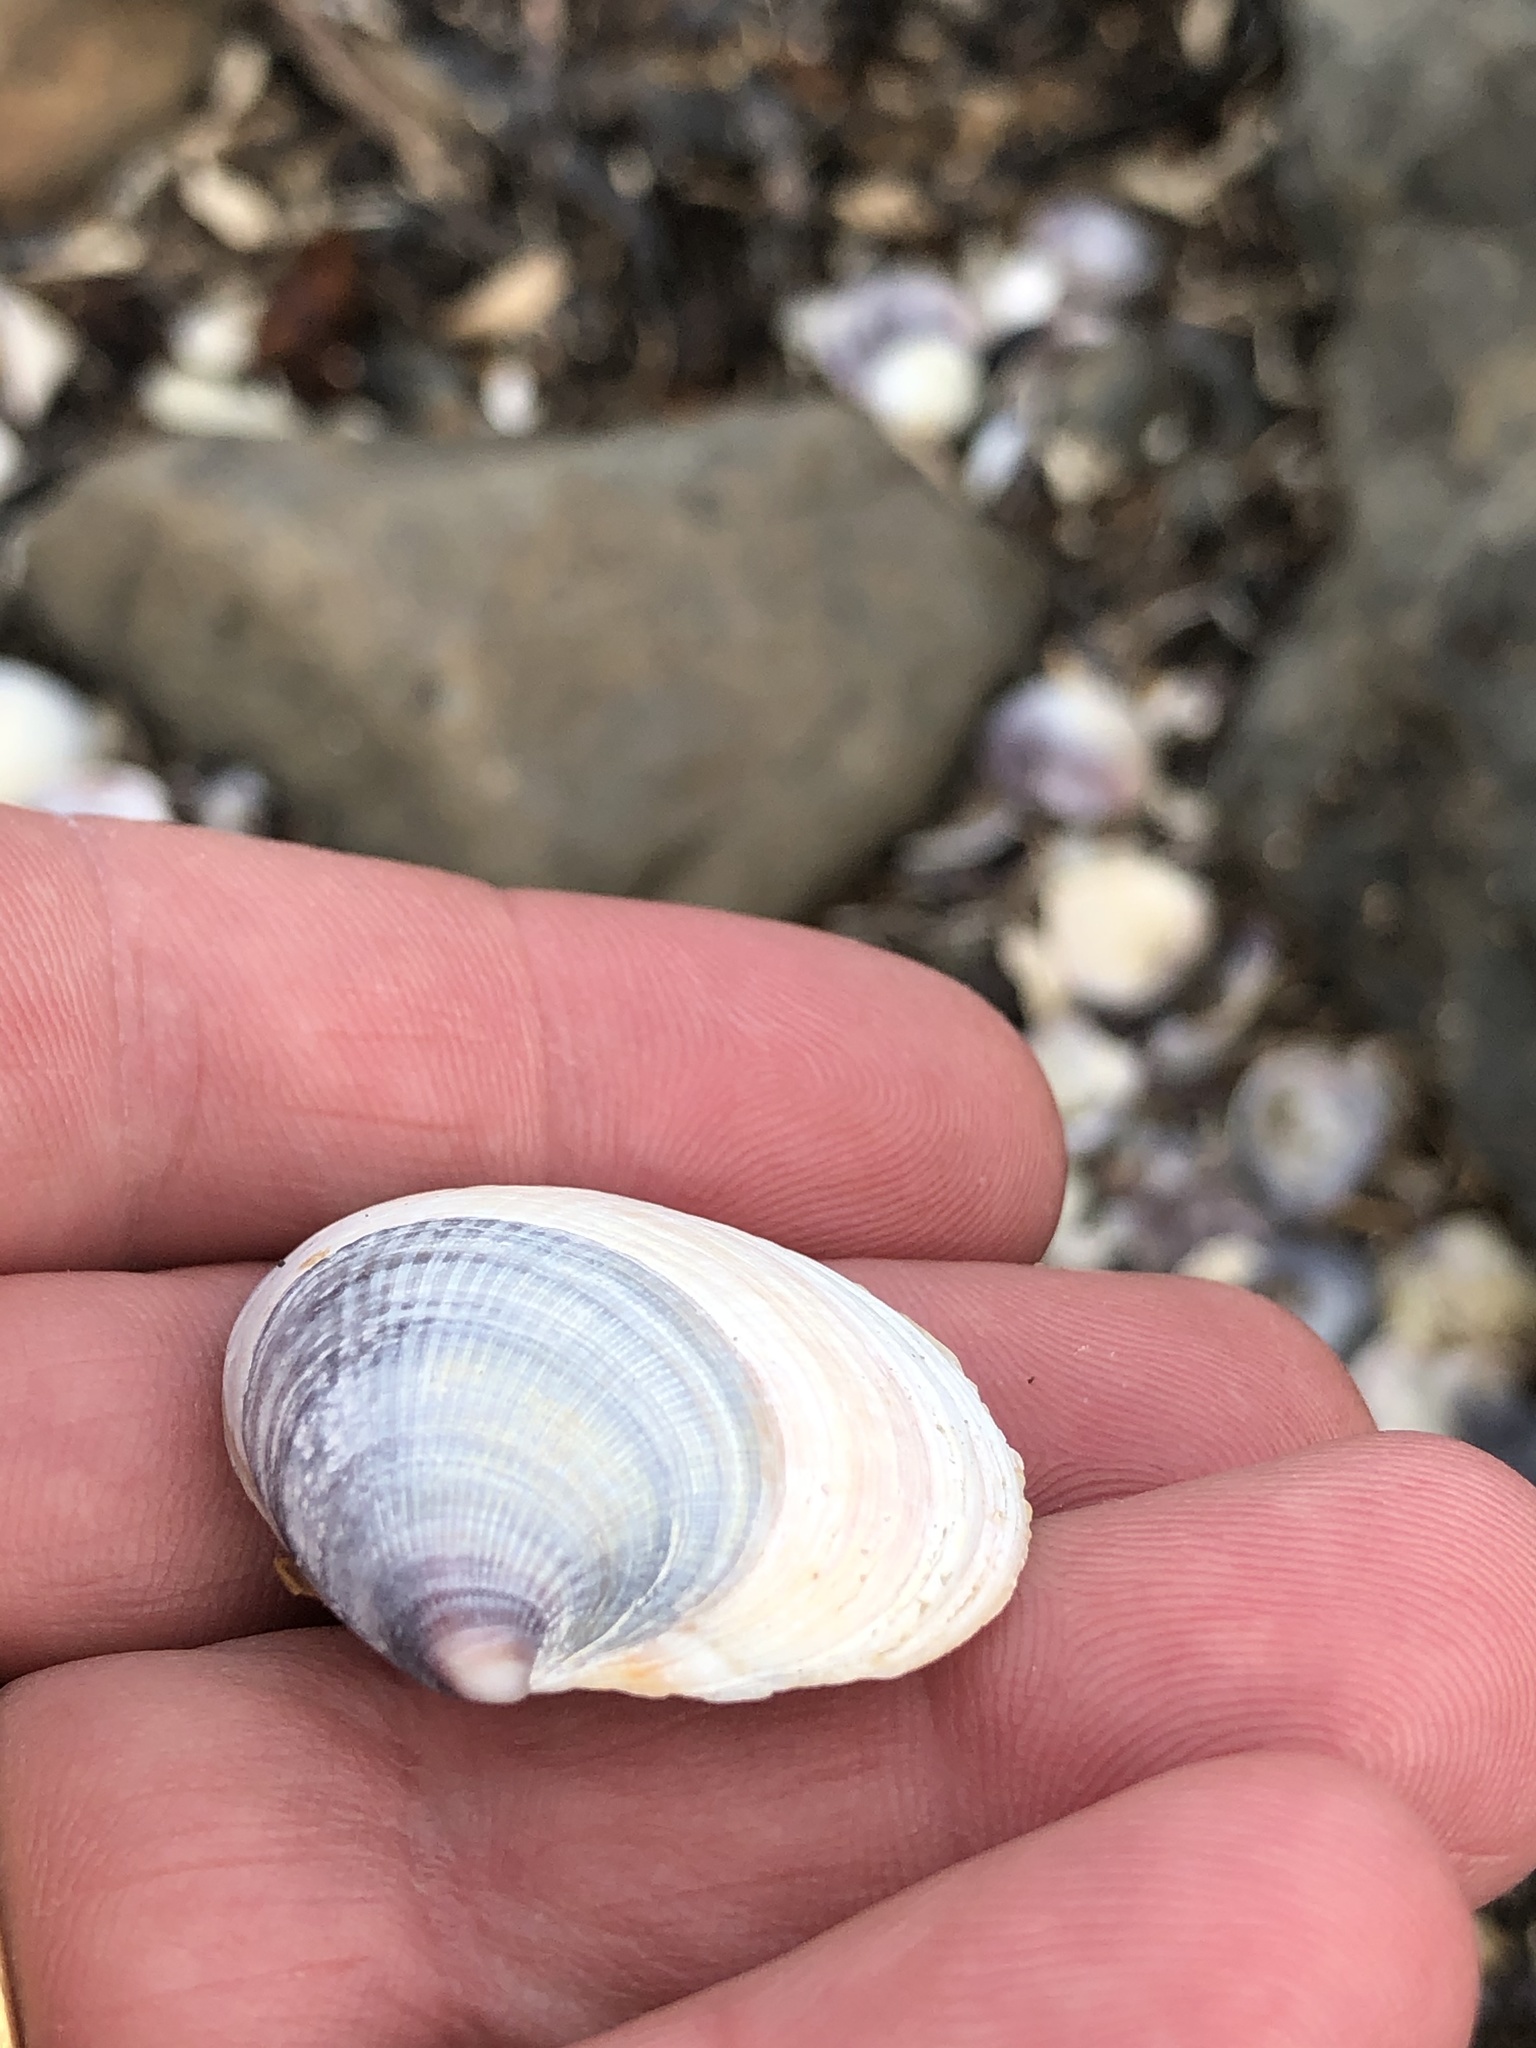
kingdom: Animalia
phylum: Mollusca
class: Bivalvia
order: Venerida
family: Veneridae
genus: Austrovenus
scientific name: Austrovenus stutchburyi
